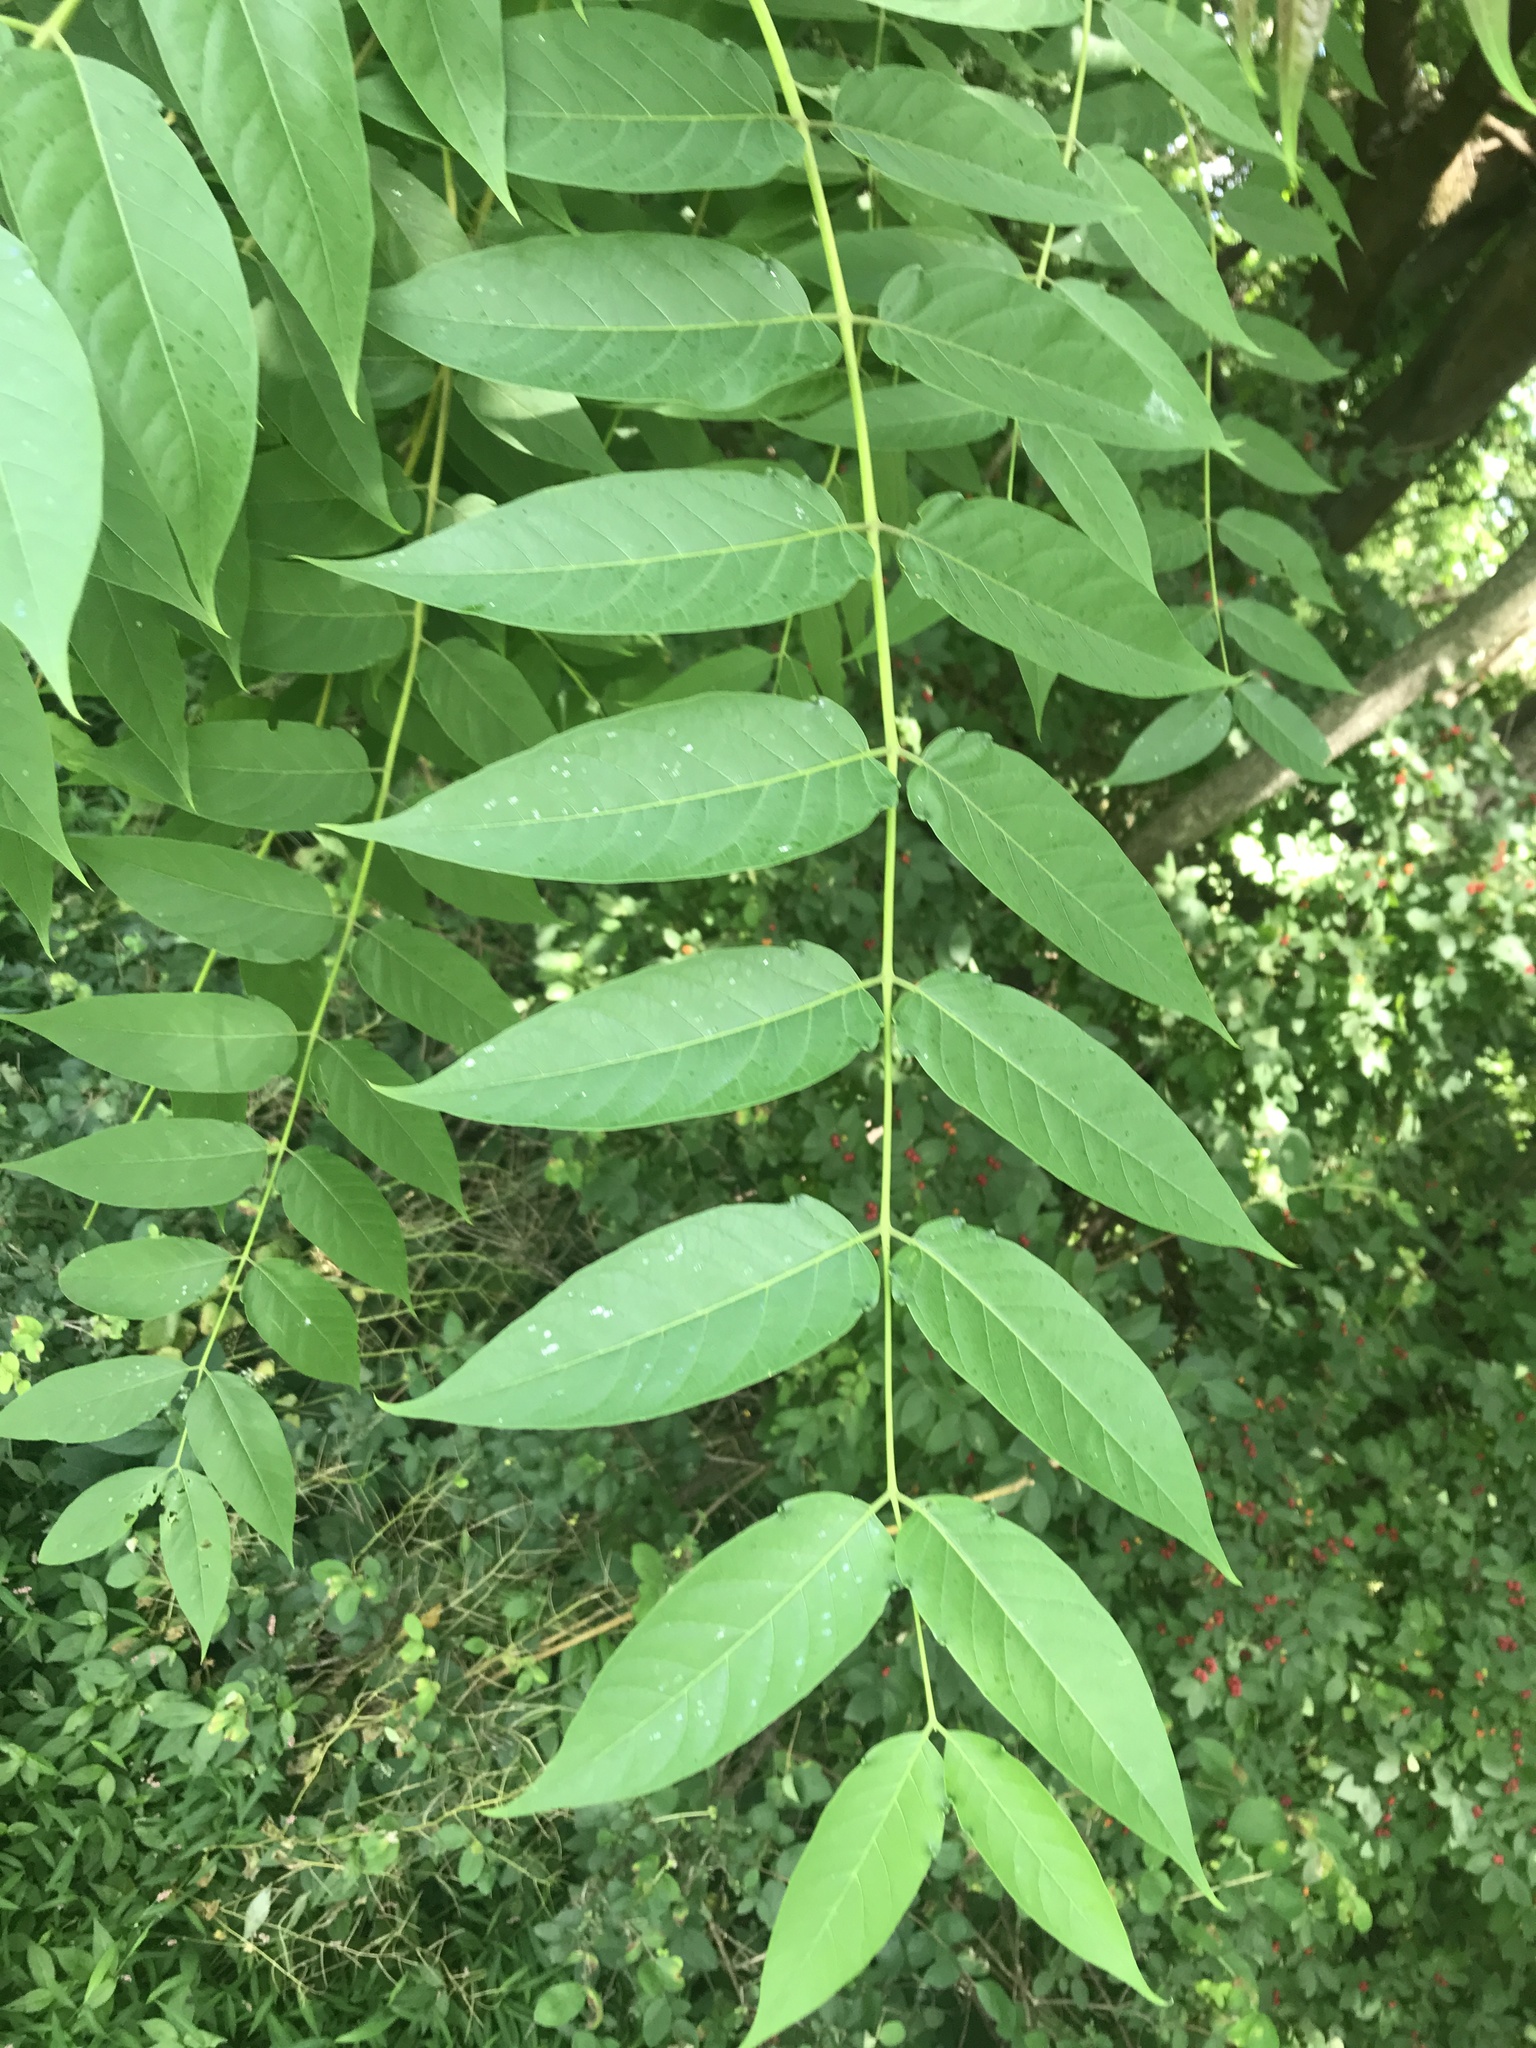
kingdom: Plantae
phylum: Tracheophyta
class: Magnoliopsida
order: Sapindales
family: Simaroubaceae
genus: Ailanthus
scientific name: Ailanthus altissima
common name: Tree-of-heaven
